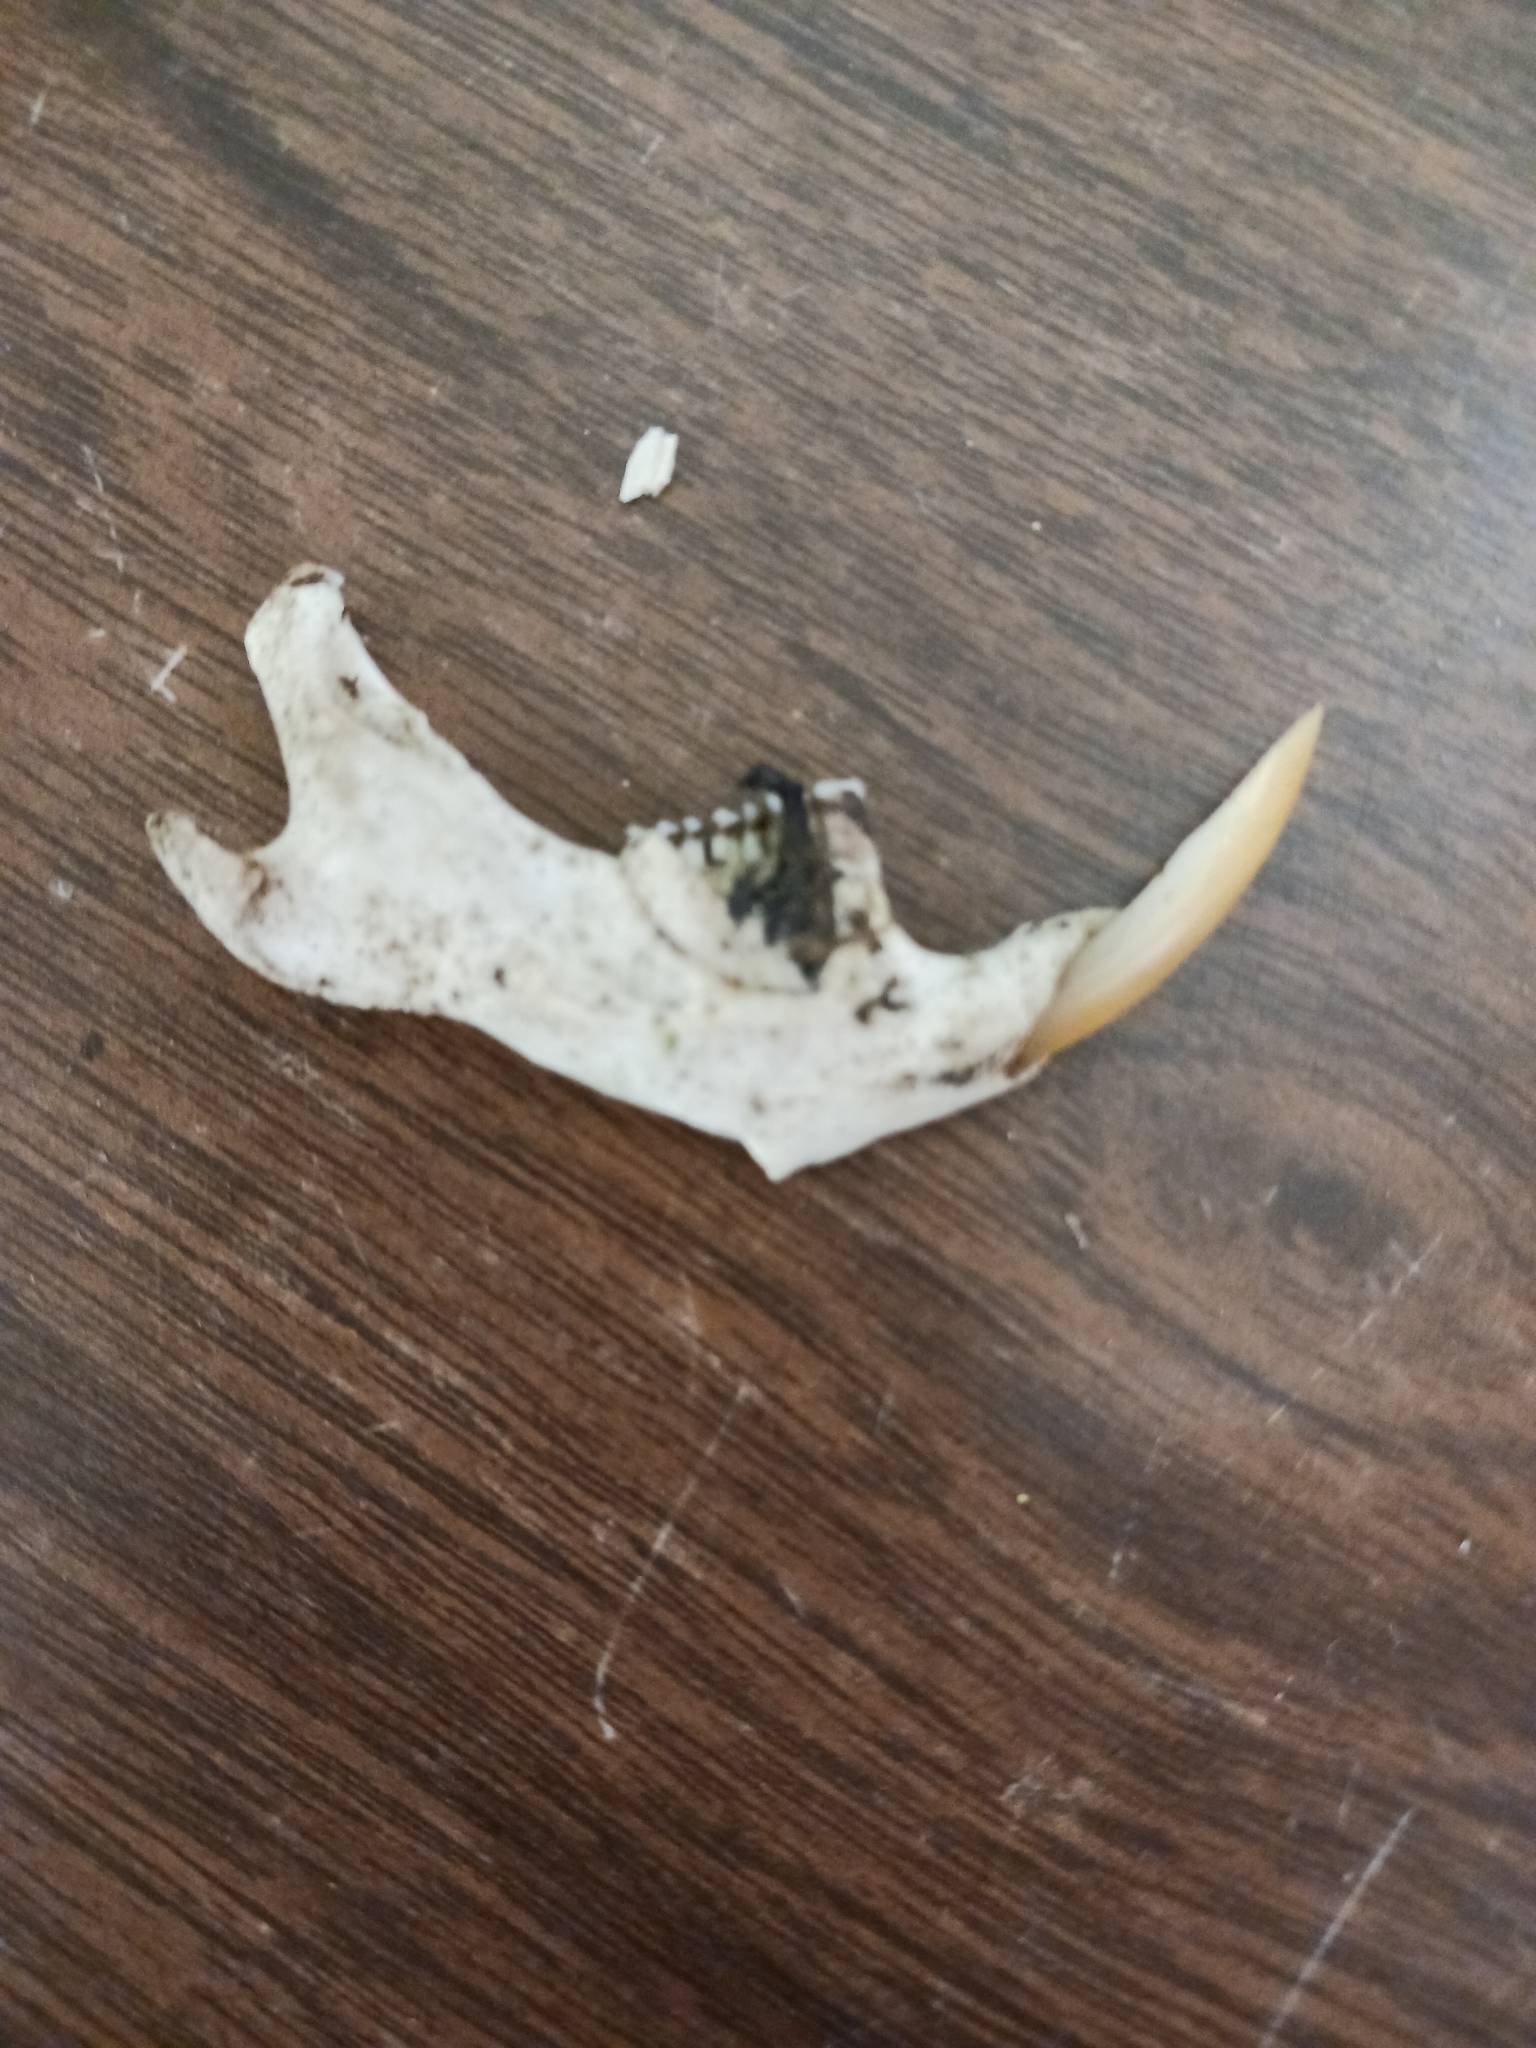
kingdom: Animalia
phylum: Chordata
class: Mammalia
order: Rodentia
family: Cricetidae
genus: Ondatra
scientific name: Ondatra zibethicus
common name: Muskrat
